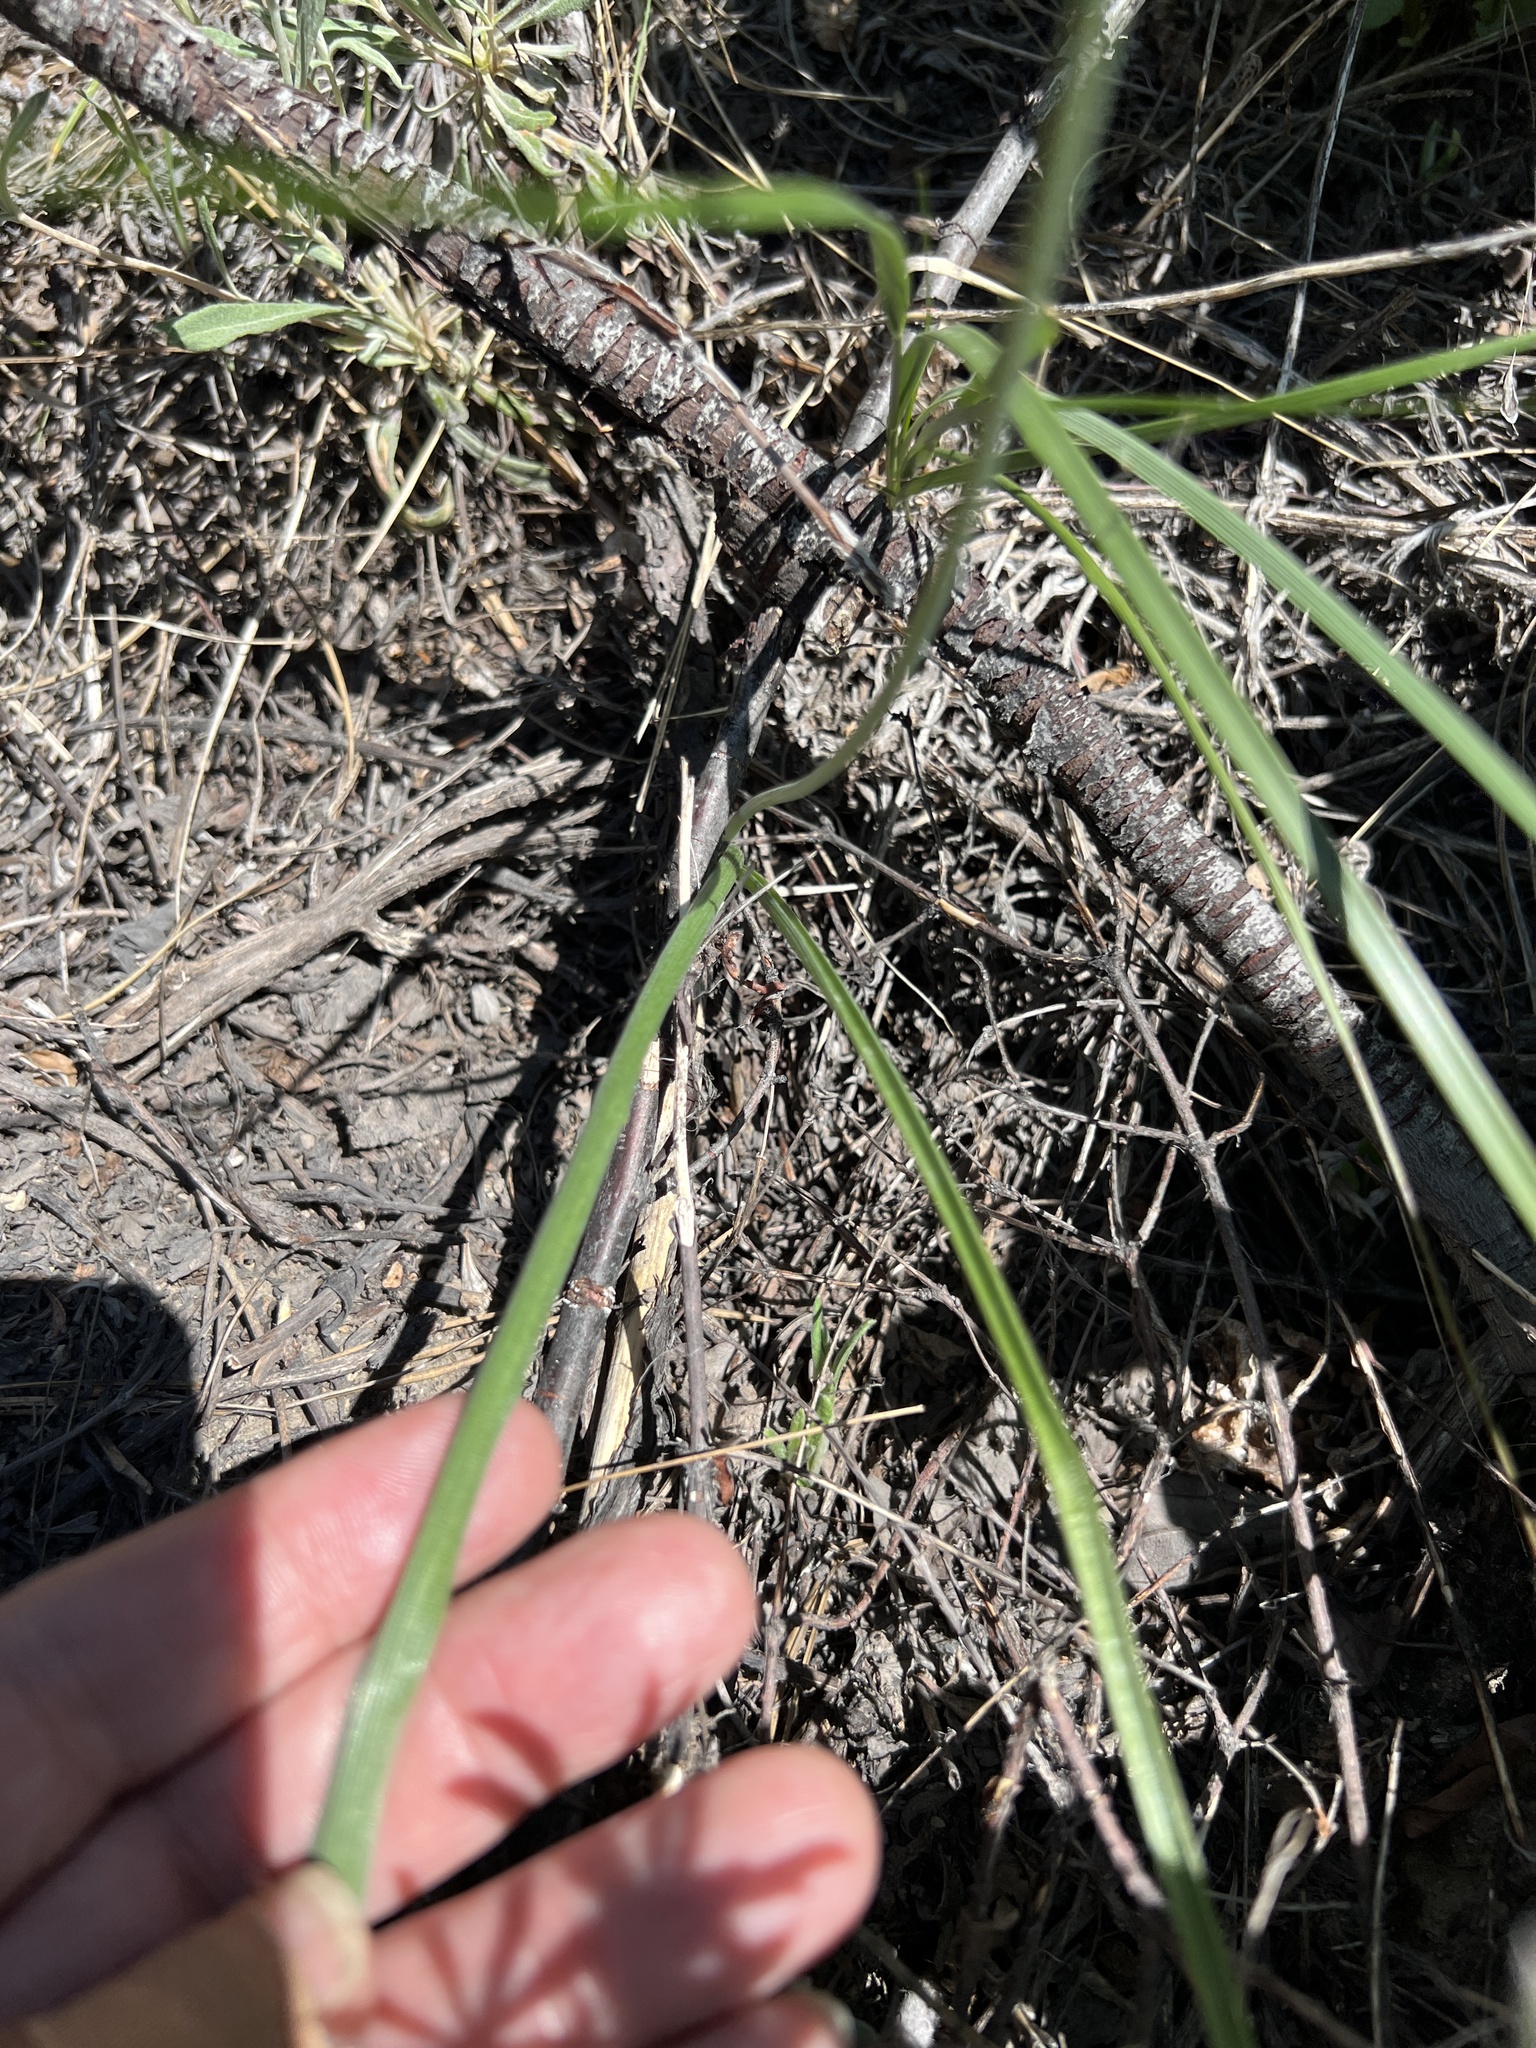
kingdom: Plantae
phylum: Tracheophyta
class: Liliopsida
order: Asparagales
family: Asparagaceae
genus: Triteleia
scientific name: Triteleia grandiflora
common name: Wild hyacinth
